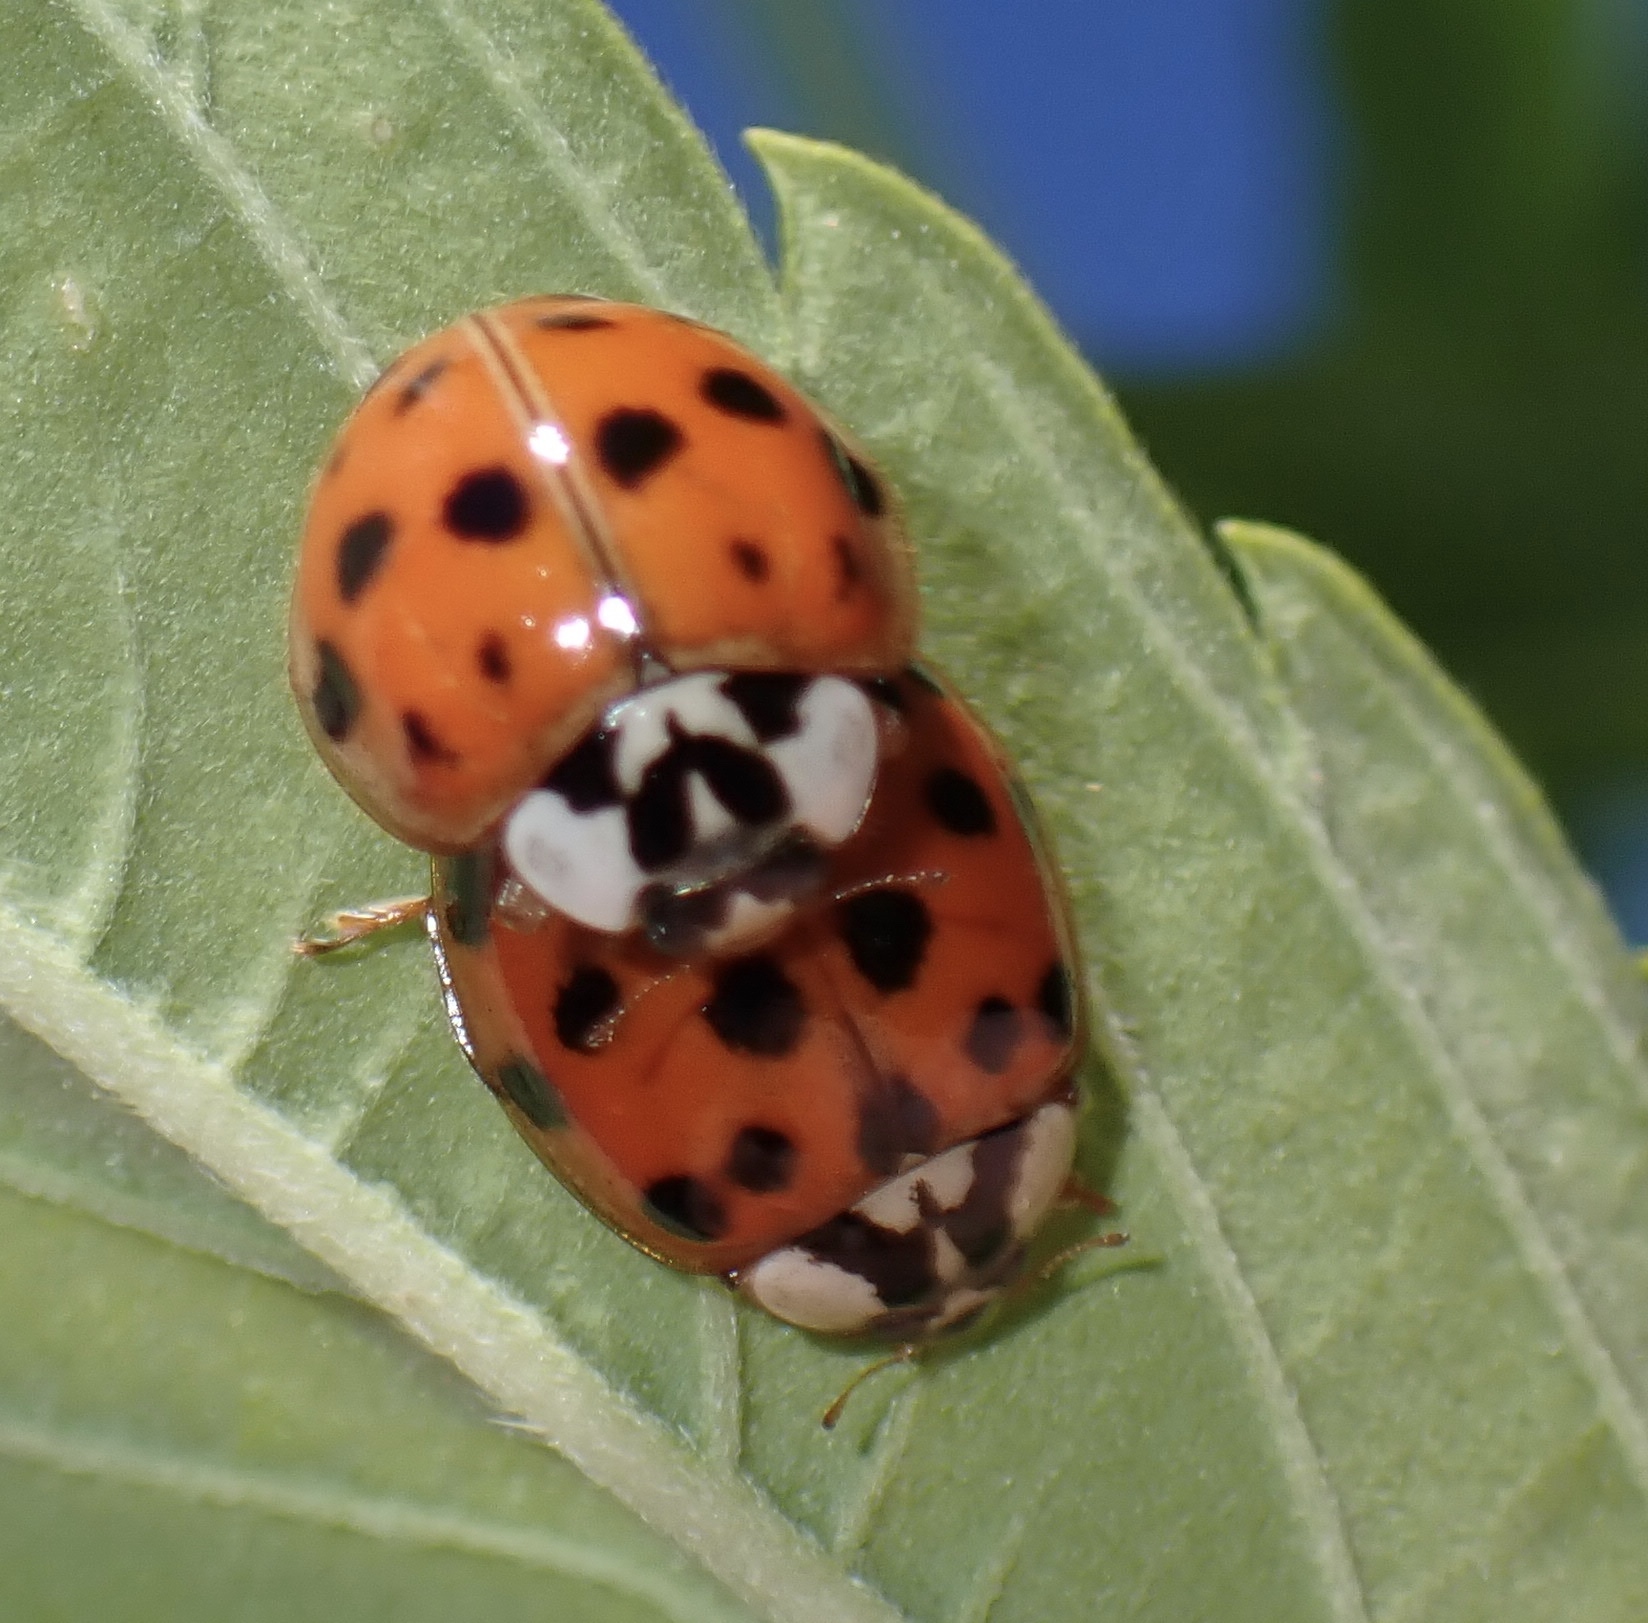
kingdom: Animalia
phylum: Arthropoda
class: Insecta
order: Coleoptera
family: Coccinellidae
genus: Harmonia
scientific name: Harmonia axyridis
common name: Harlequin ladybird
